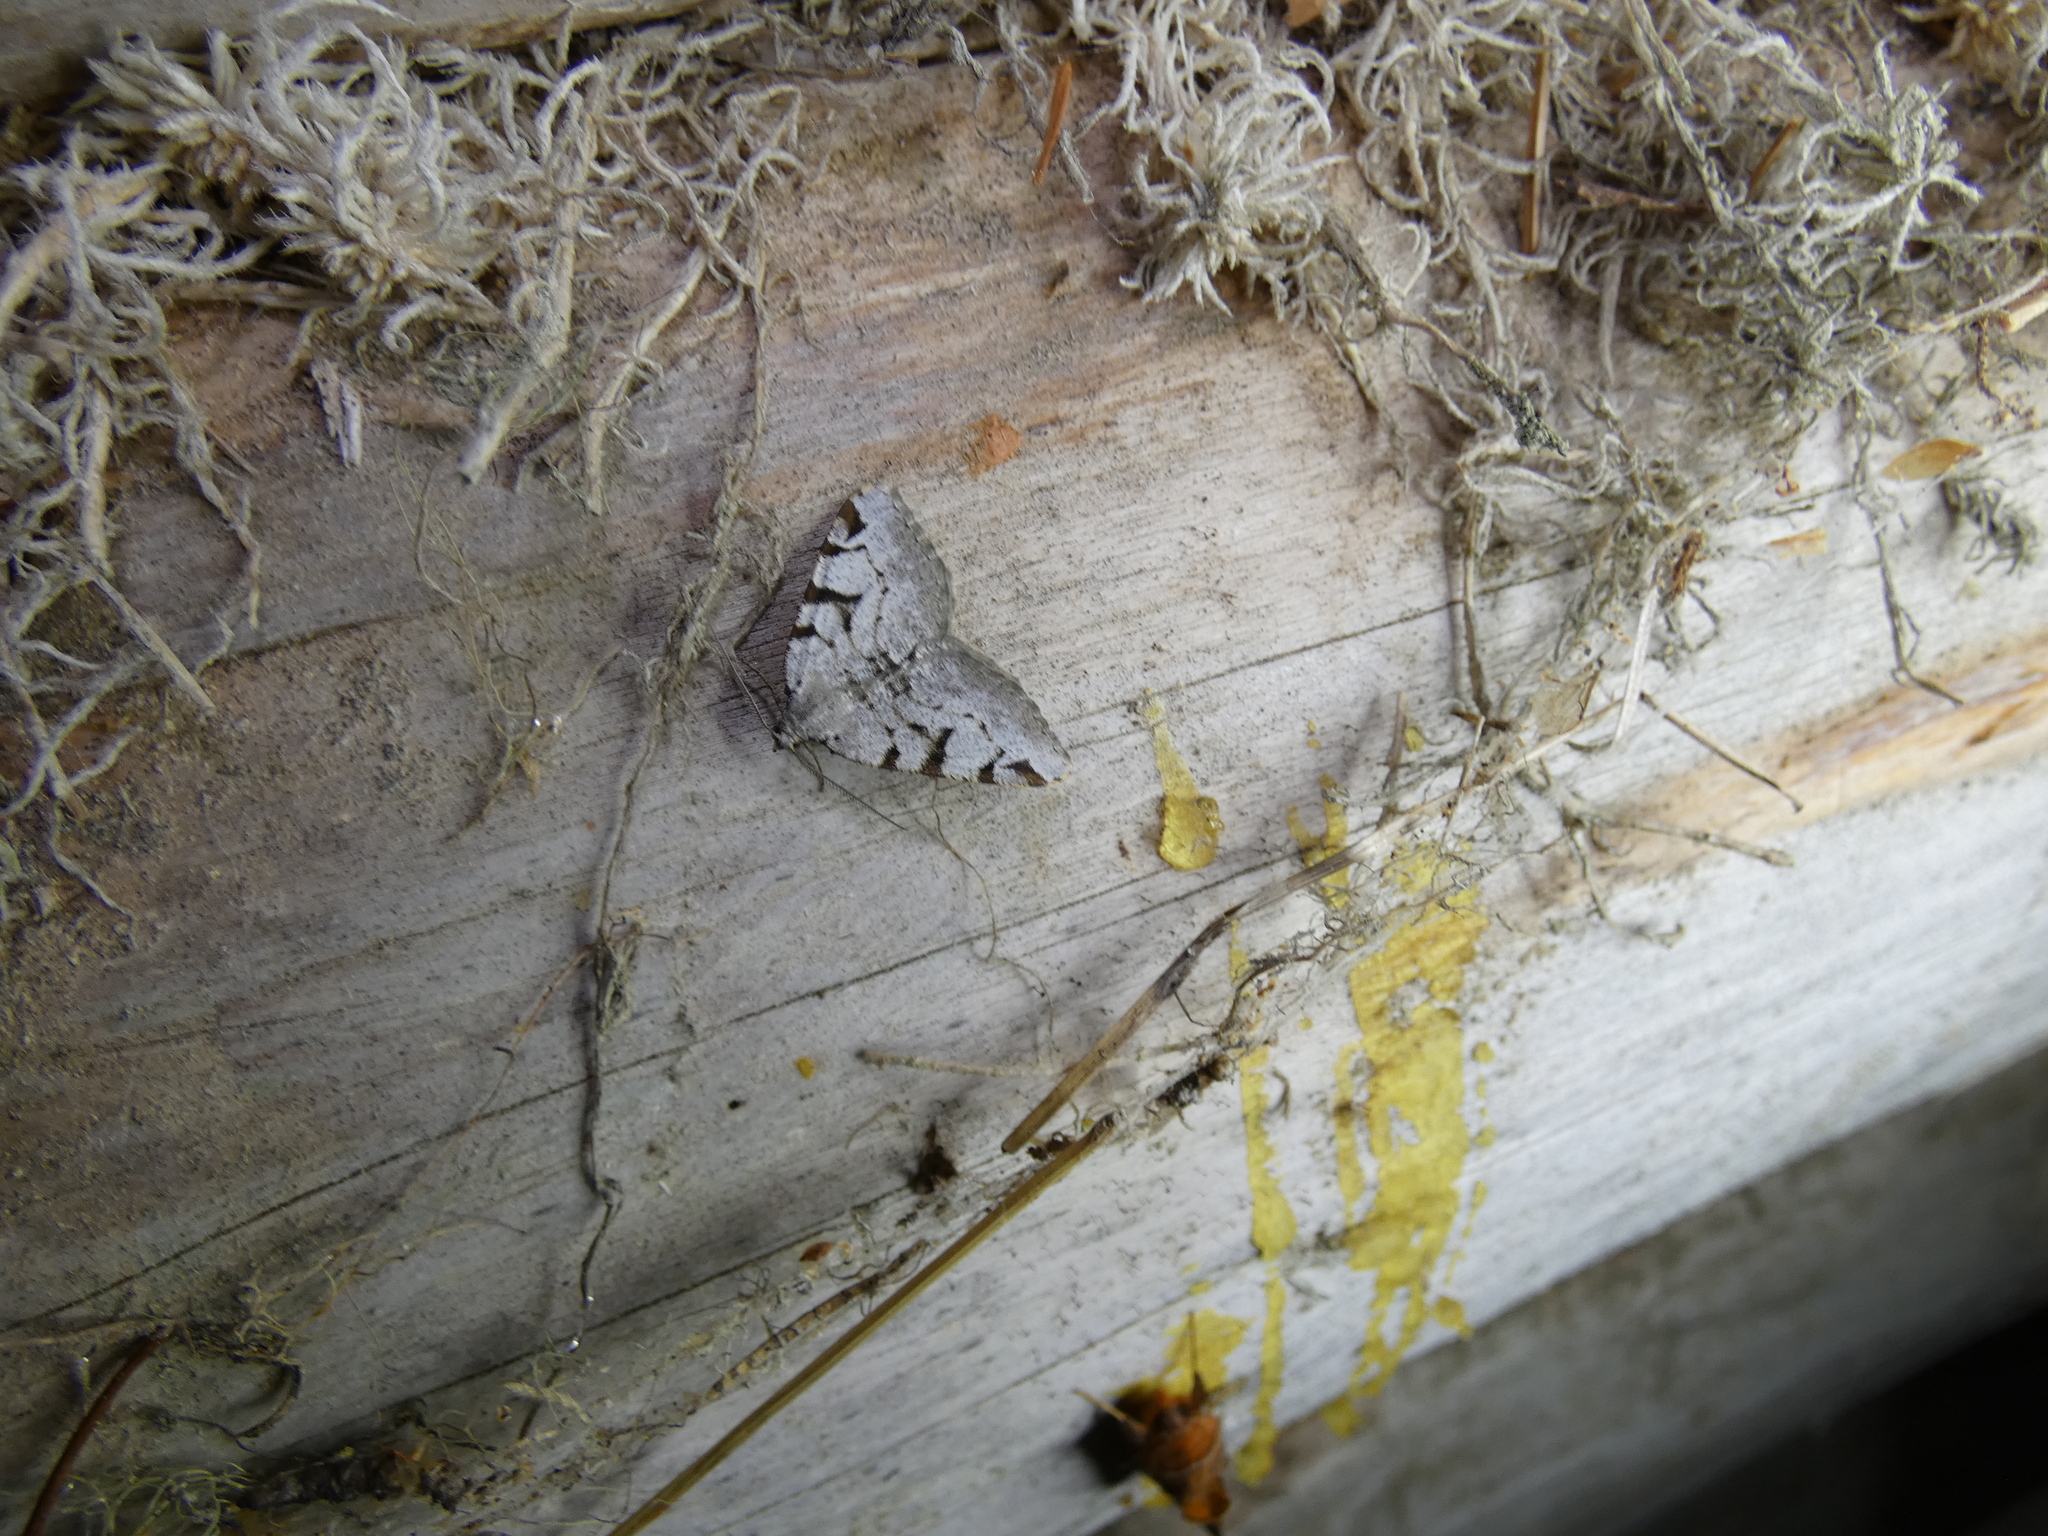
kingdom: Animalia
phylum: Arthropoda
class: Insecta
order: Lepidoptera
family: Geometridae
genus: Macaria
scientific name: Macaria wauaria
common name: V-moth
